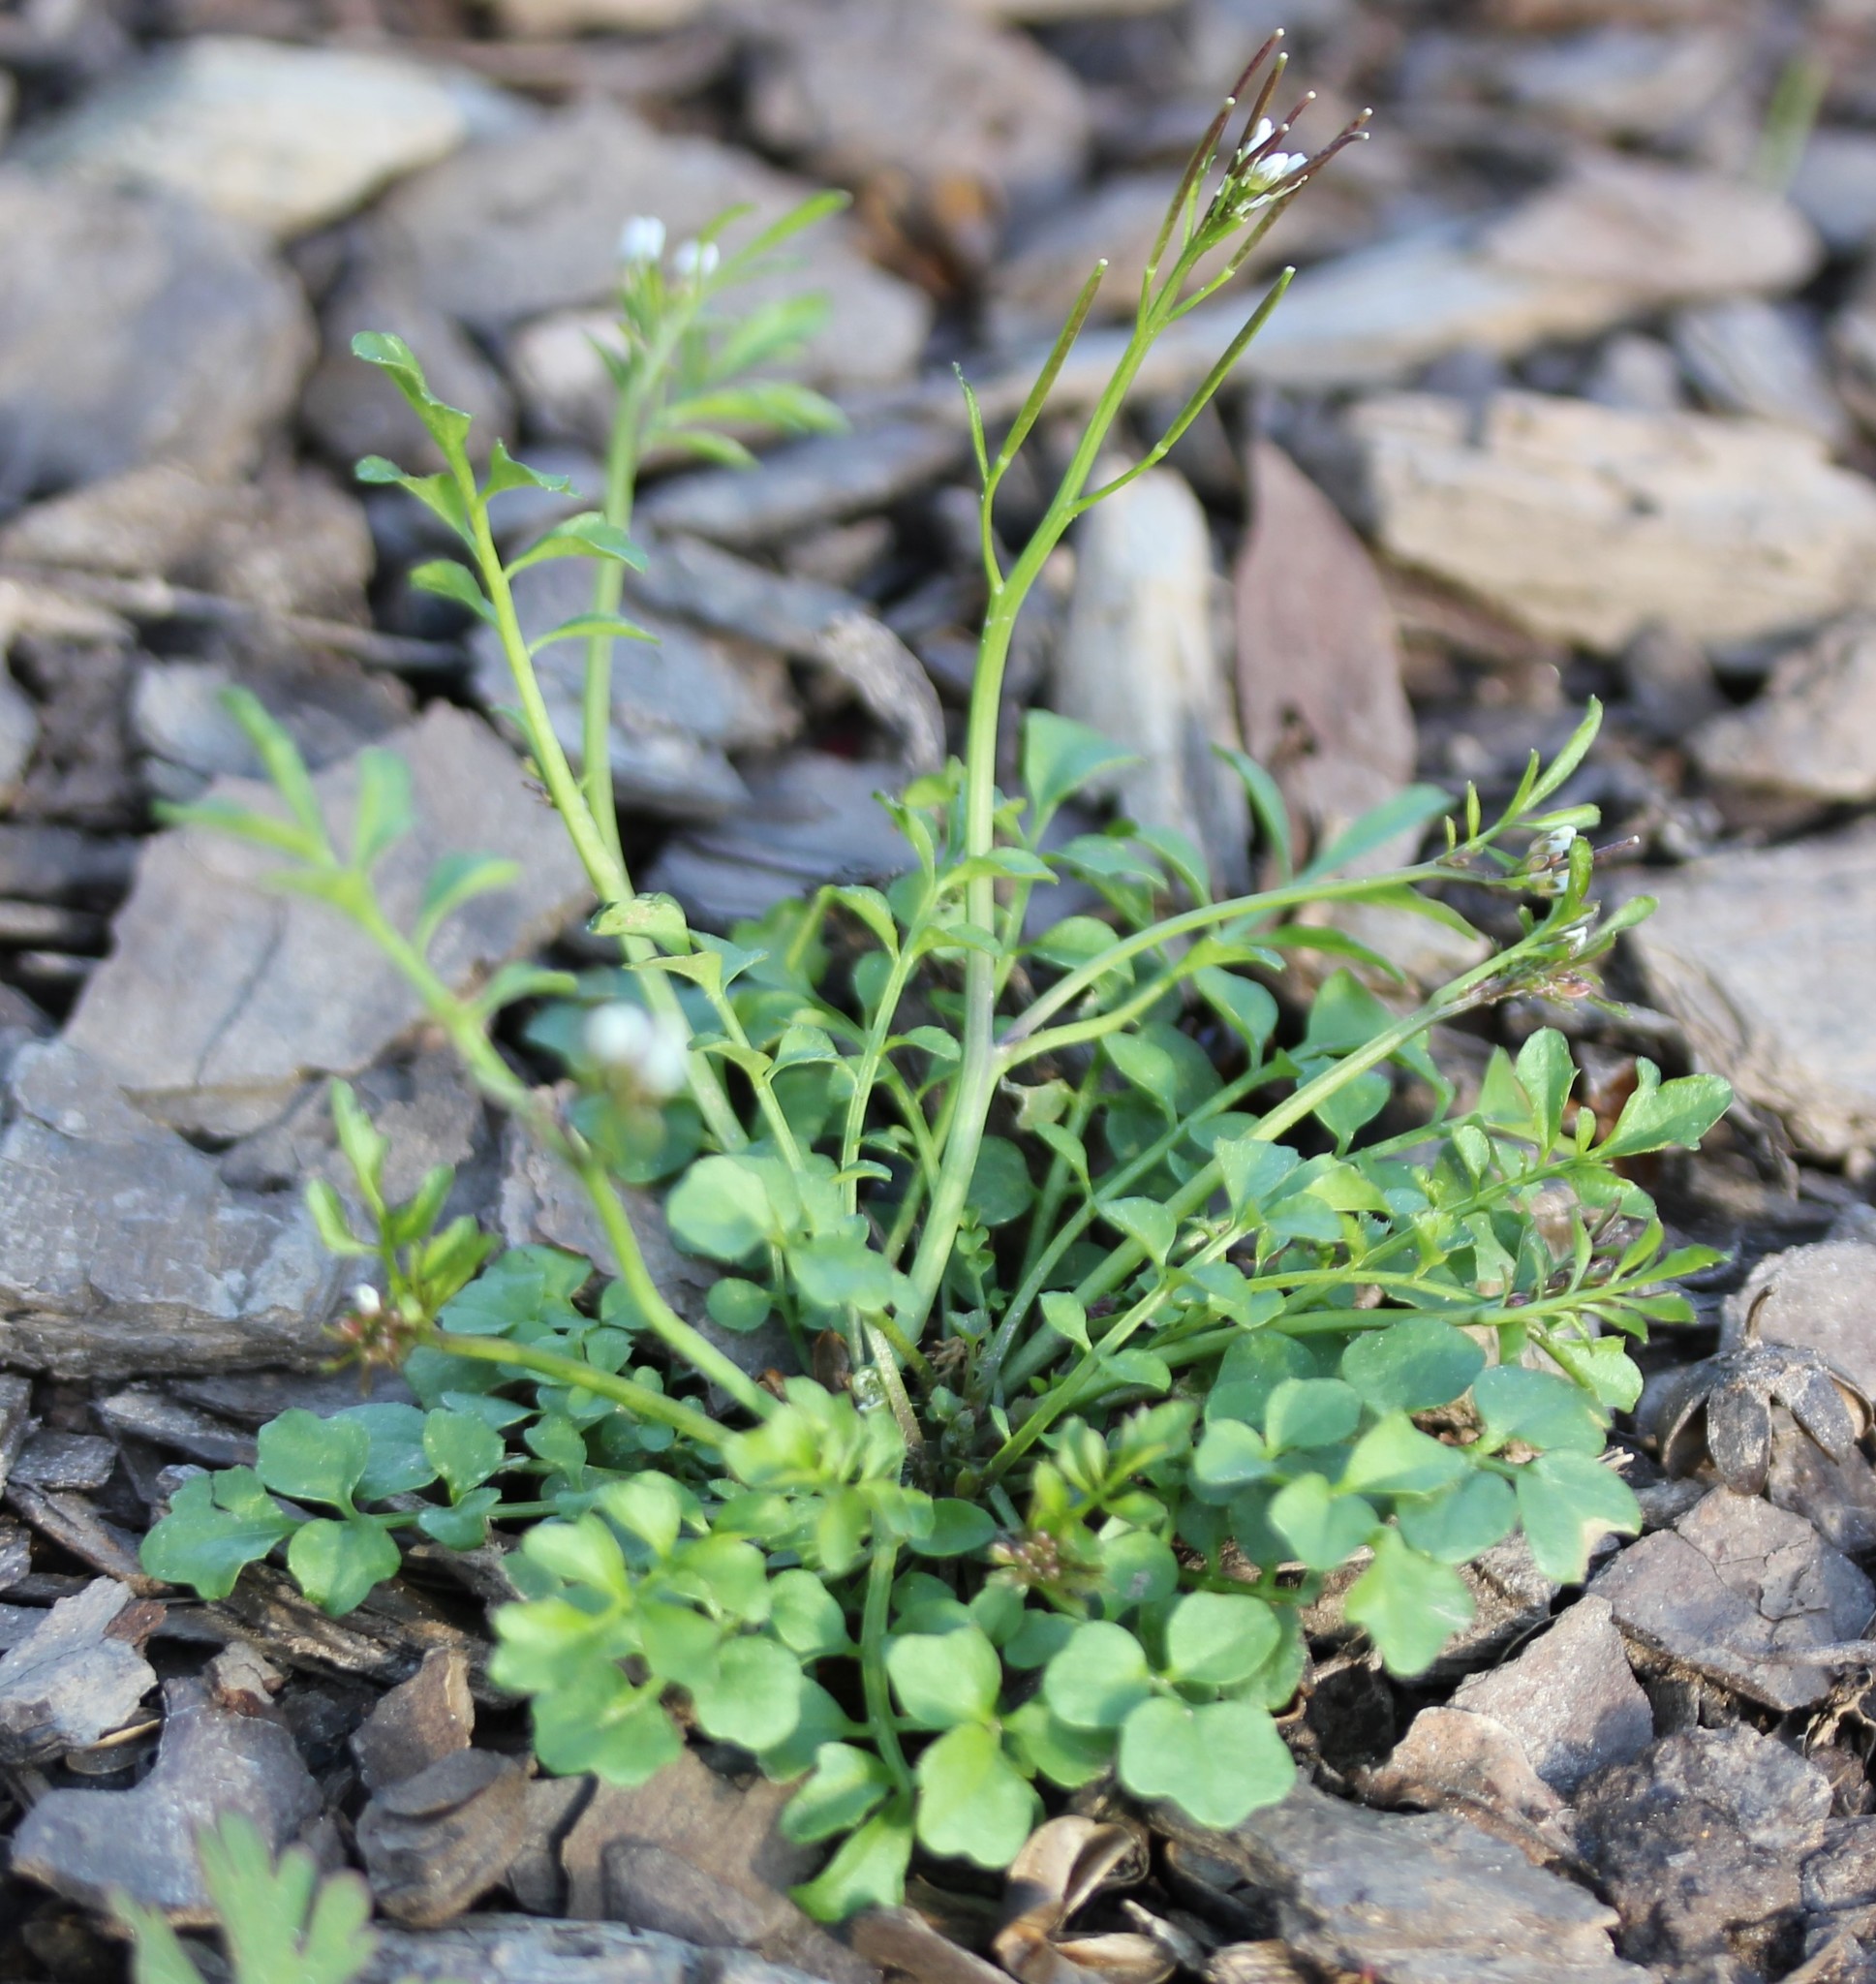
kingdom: Plantae
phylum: Tracheophyta
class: Magnoliopsida
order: Brassicales
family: Brassicaceae
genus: Cardamine
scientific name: Cardamine hirsuta
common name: Hairy bittercress
